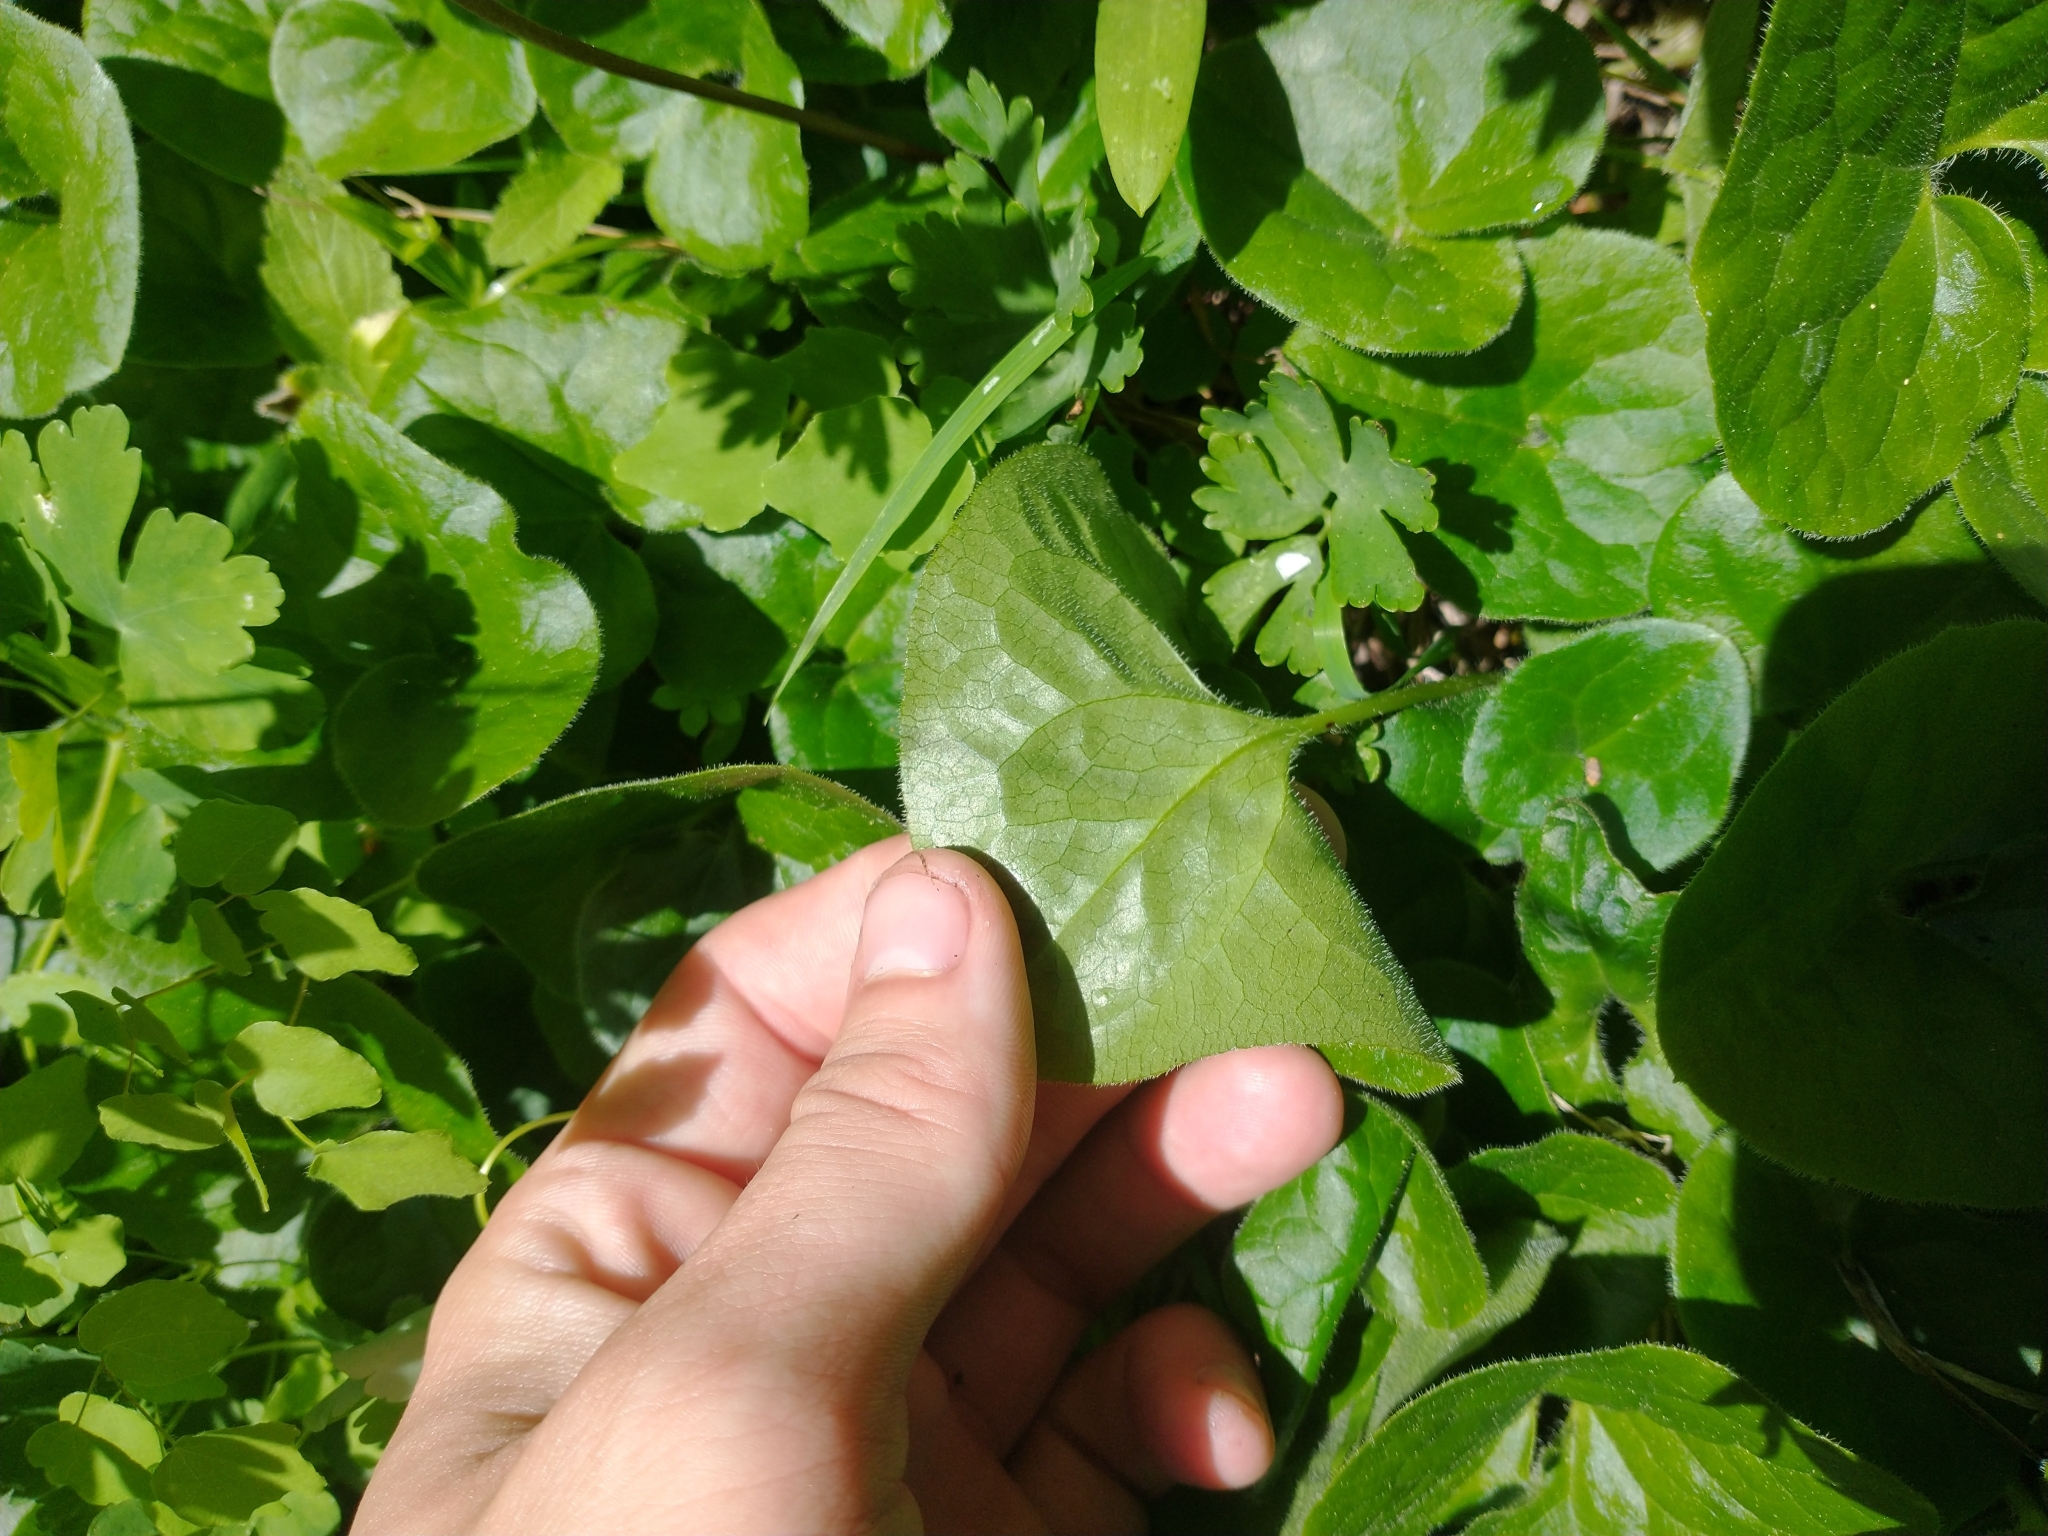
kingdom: Plantae
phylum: Tracheophyta
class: Magnoliopsida
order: Piperales
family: Aristolochiaceae
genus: Asarum
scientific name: Asarum caudatum
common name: Wild ginger
